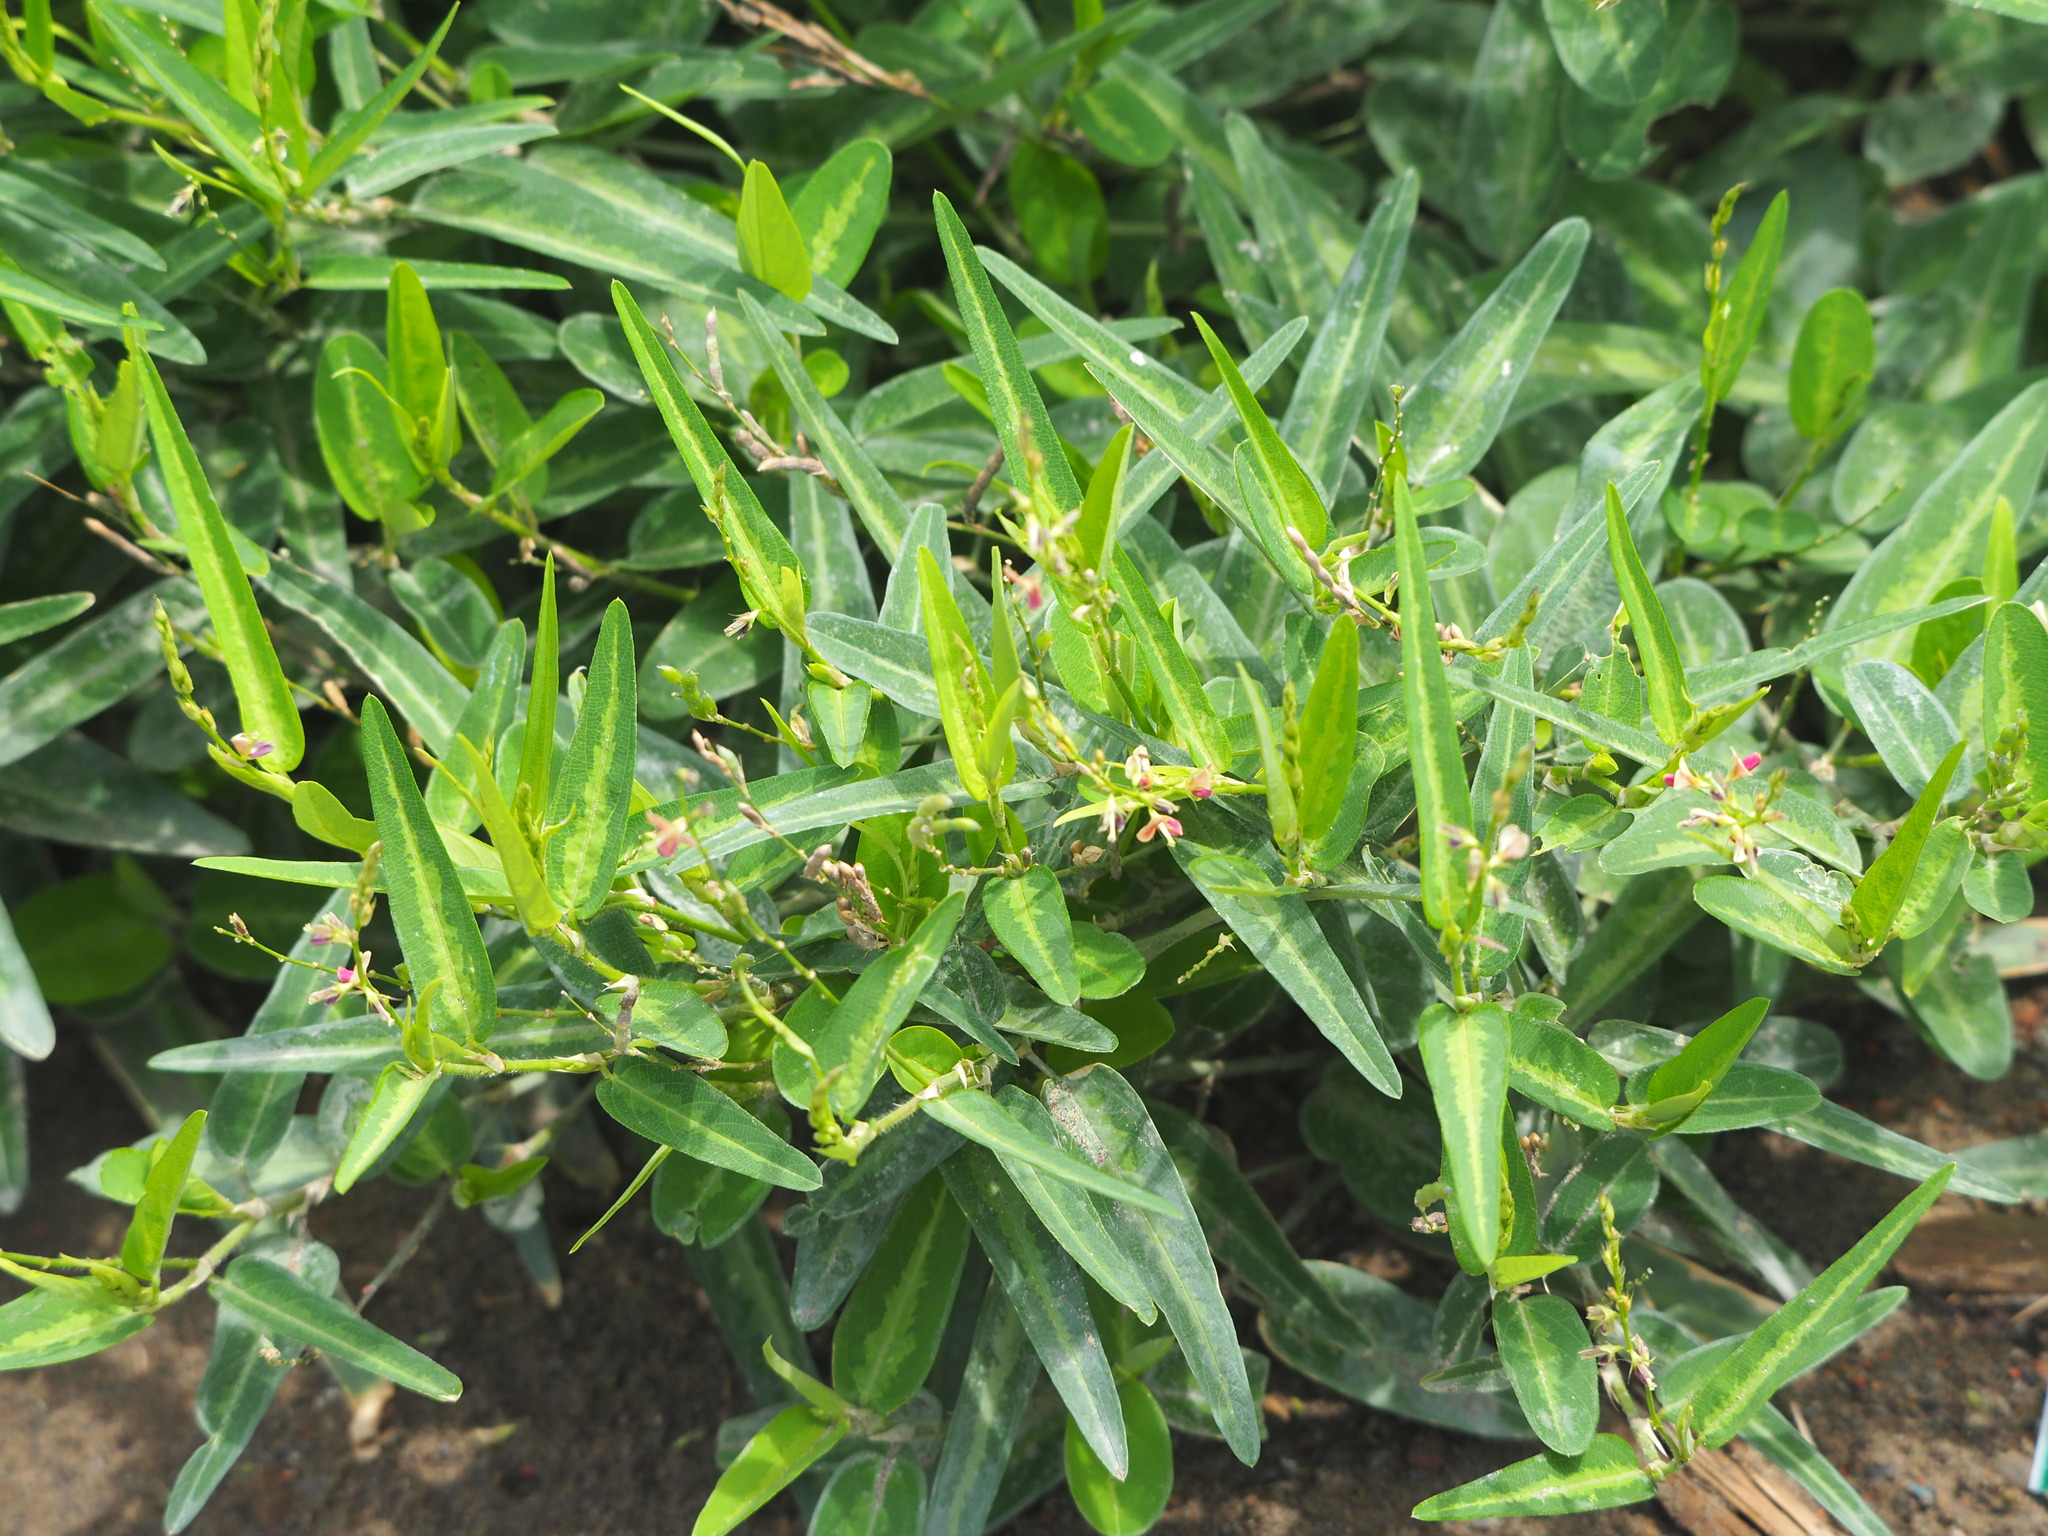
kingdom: Plantae
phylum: Tracheophyta
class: Magnoliopsida
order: Fabales
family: Fabaceae
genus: Alysicarpus
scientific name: Alysicarpus ovalifolius
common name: Alyce clover
